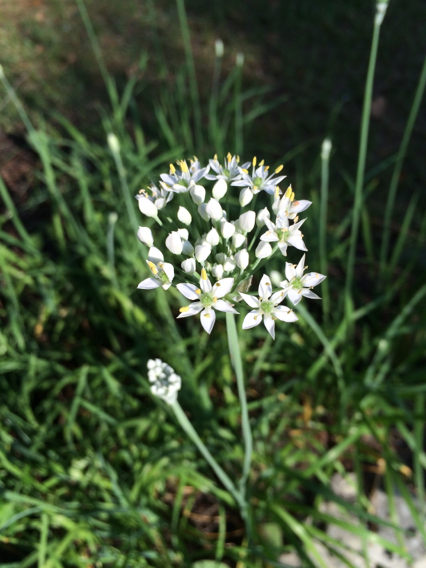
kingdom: Plantae
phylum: Tracheophyta
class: Liliopsida
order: Asparagales
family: Amaryllidaceae
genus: Allium
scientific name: Allium tuberosum
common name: Chinese chives
